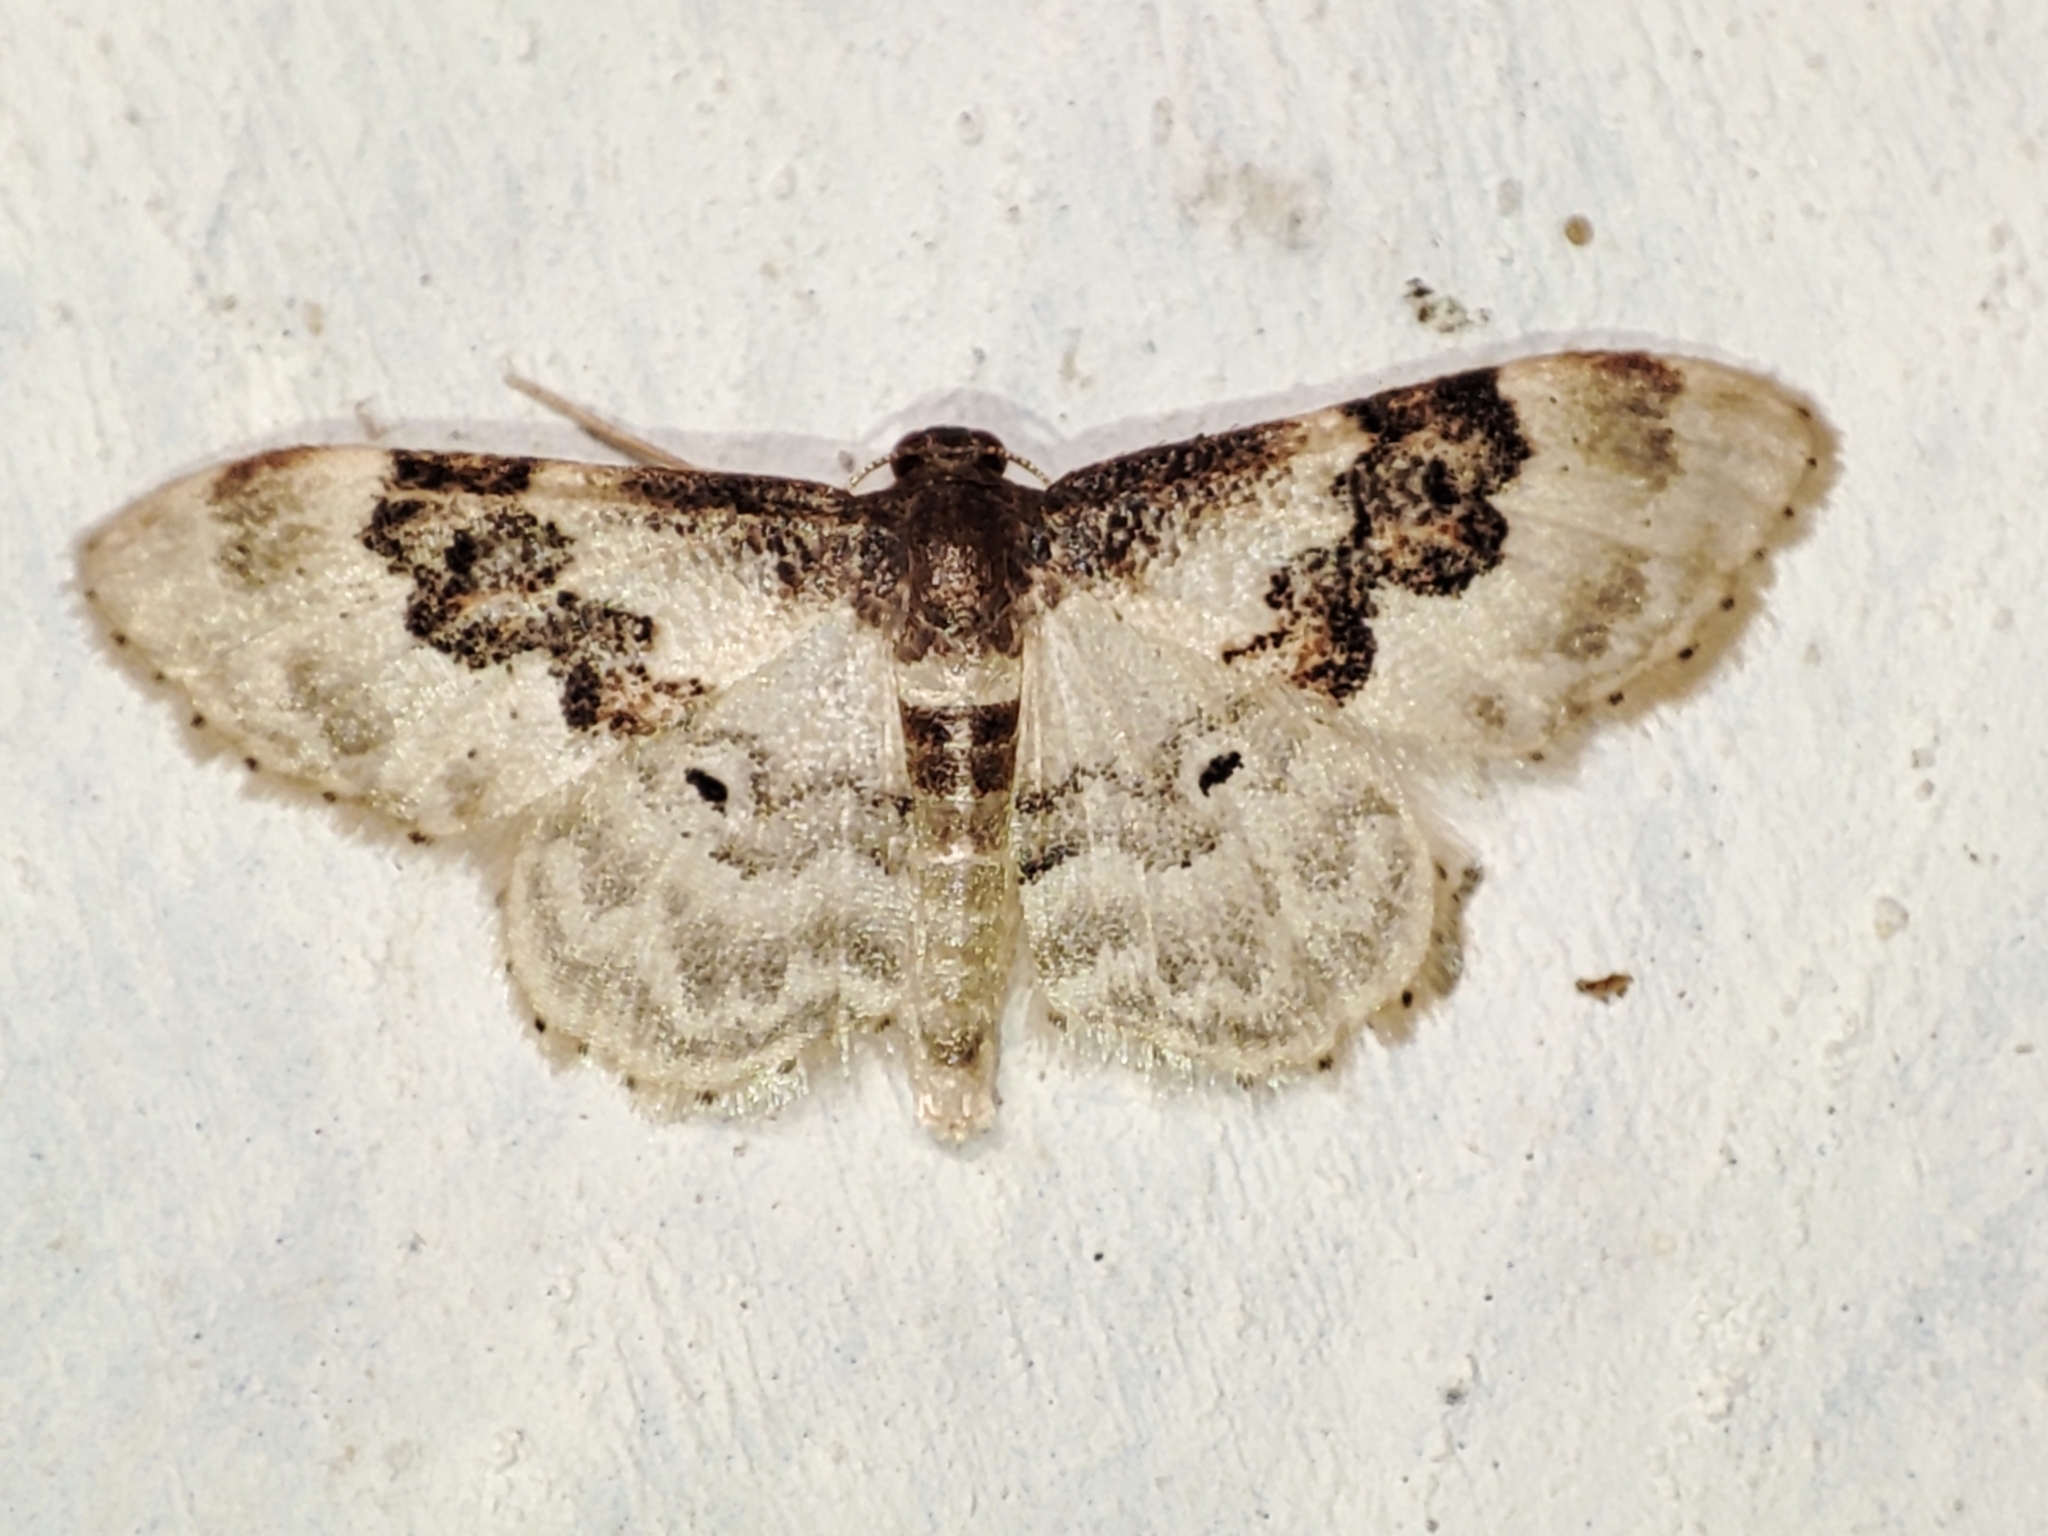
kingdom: Animalia
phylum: Arthropoda
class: Insecta
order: Lepidoptera
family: Geometridae
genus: Idaea
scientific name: Idaea rusticata
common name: Least carpet
